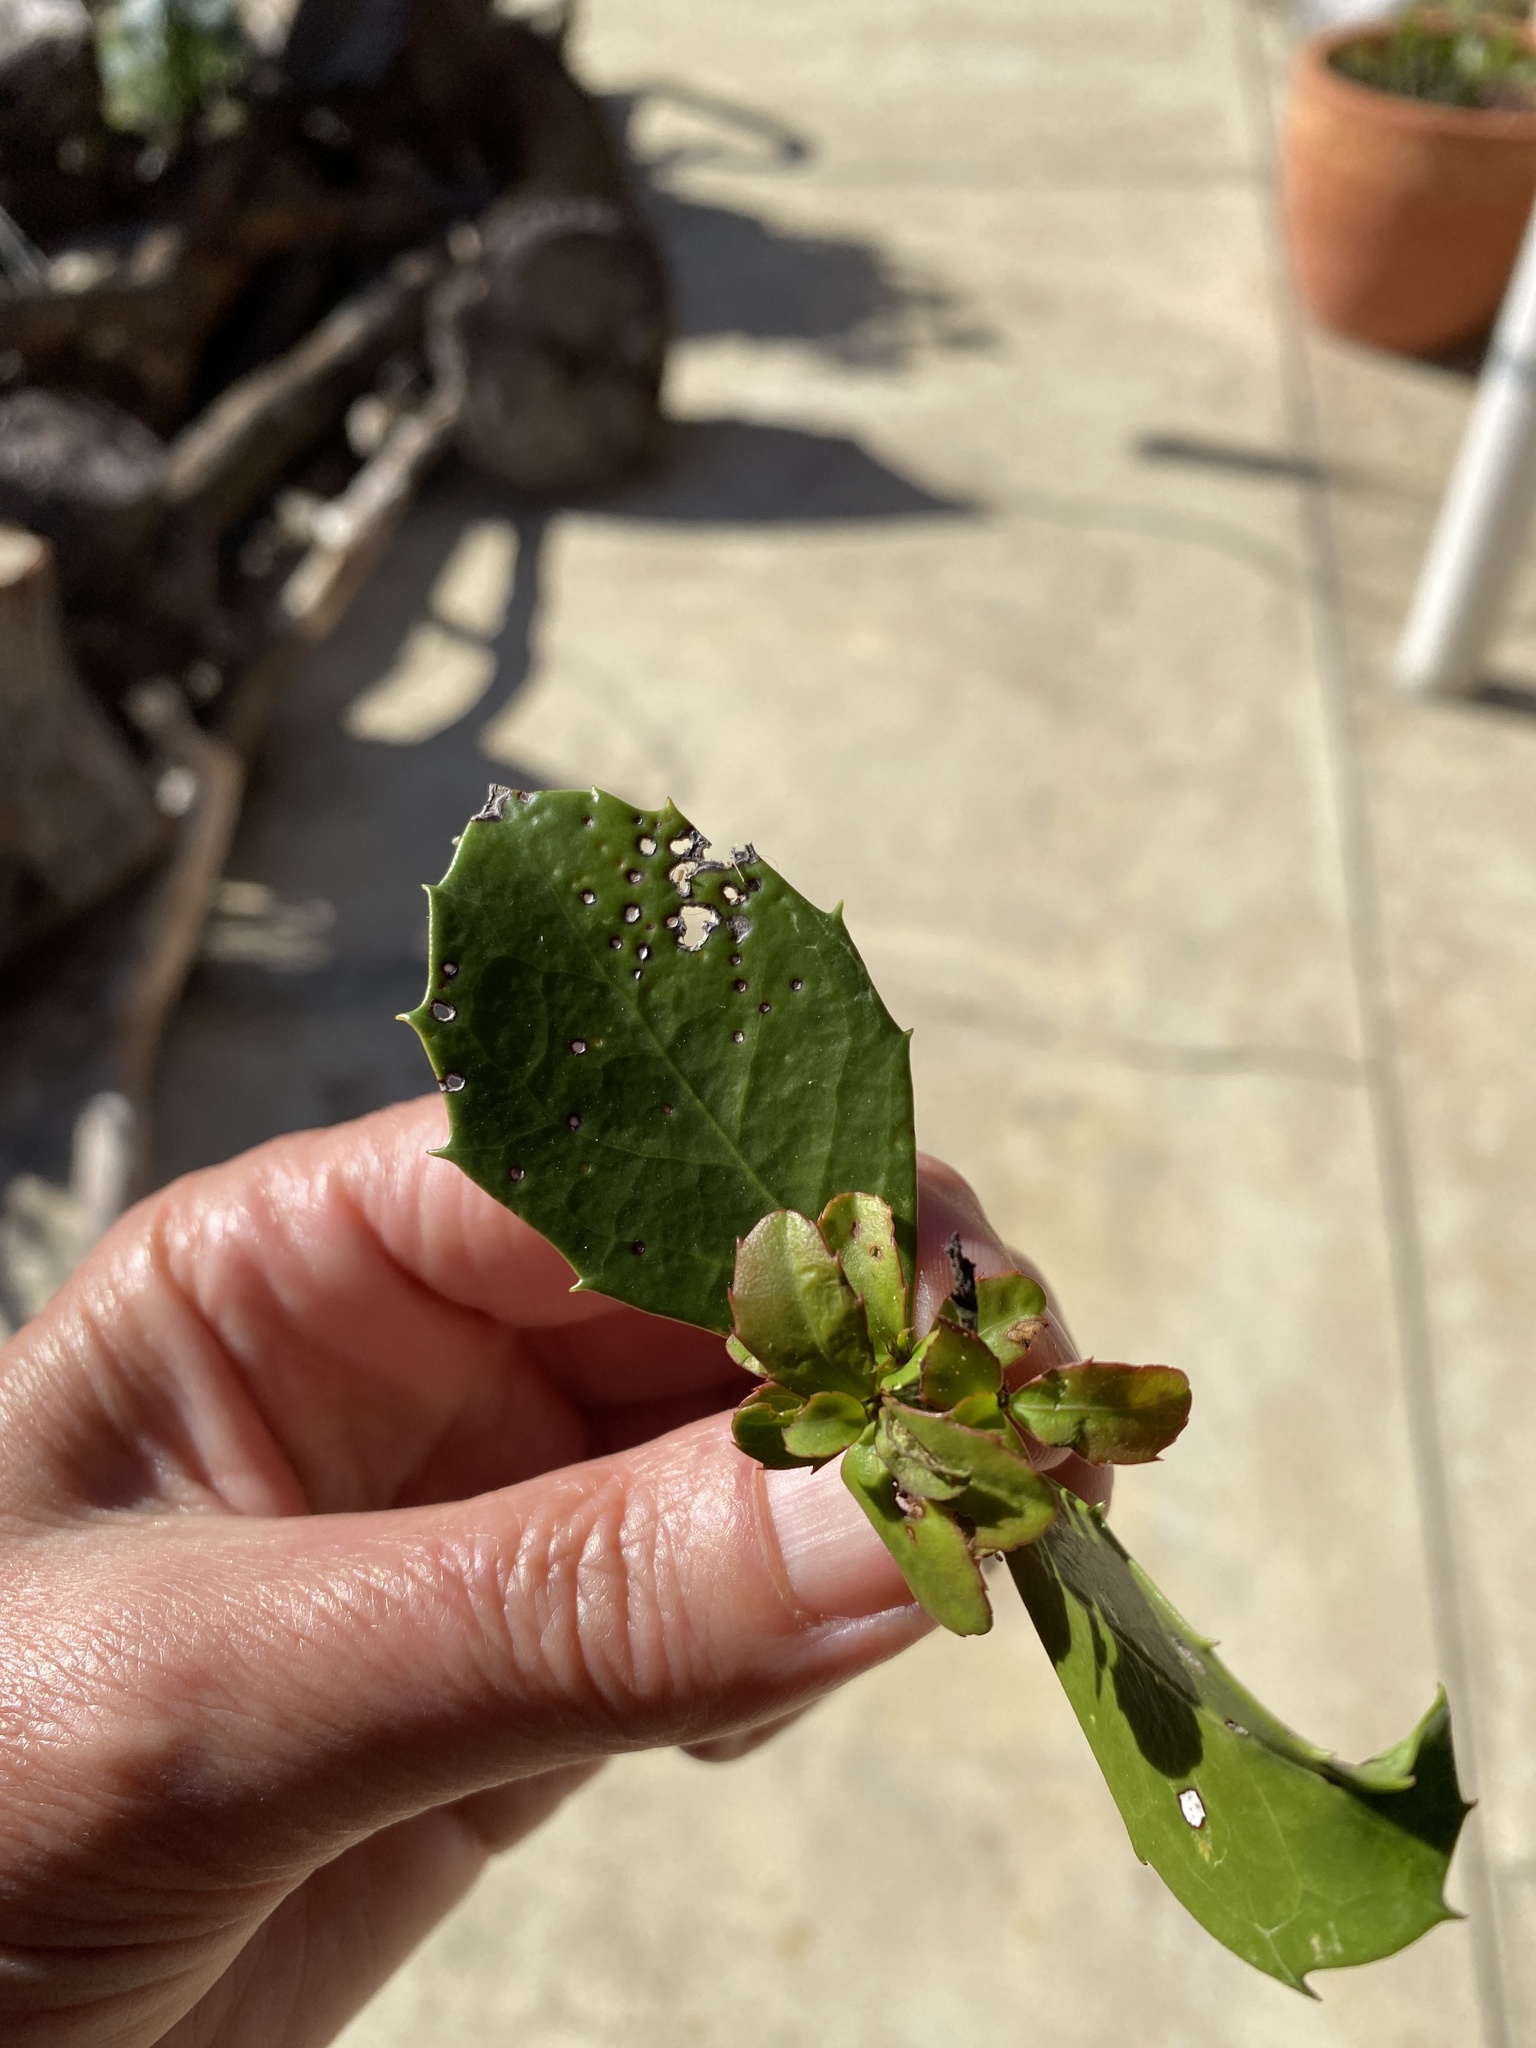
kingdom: Plantae
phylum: Tracheophyta
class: Magnoliopsida
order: Celastrales
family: Celastraceae
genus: Gymnosporia
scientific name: Gymnosporia procumbens
